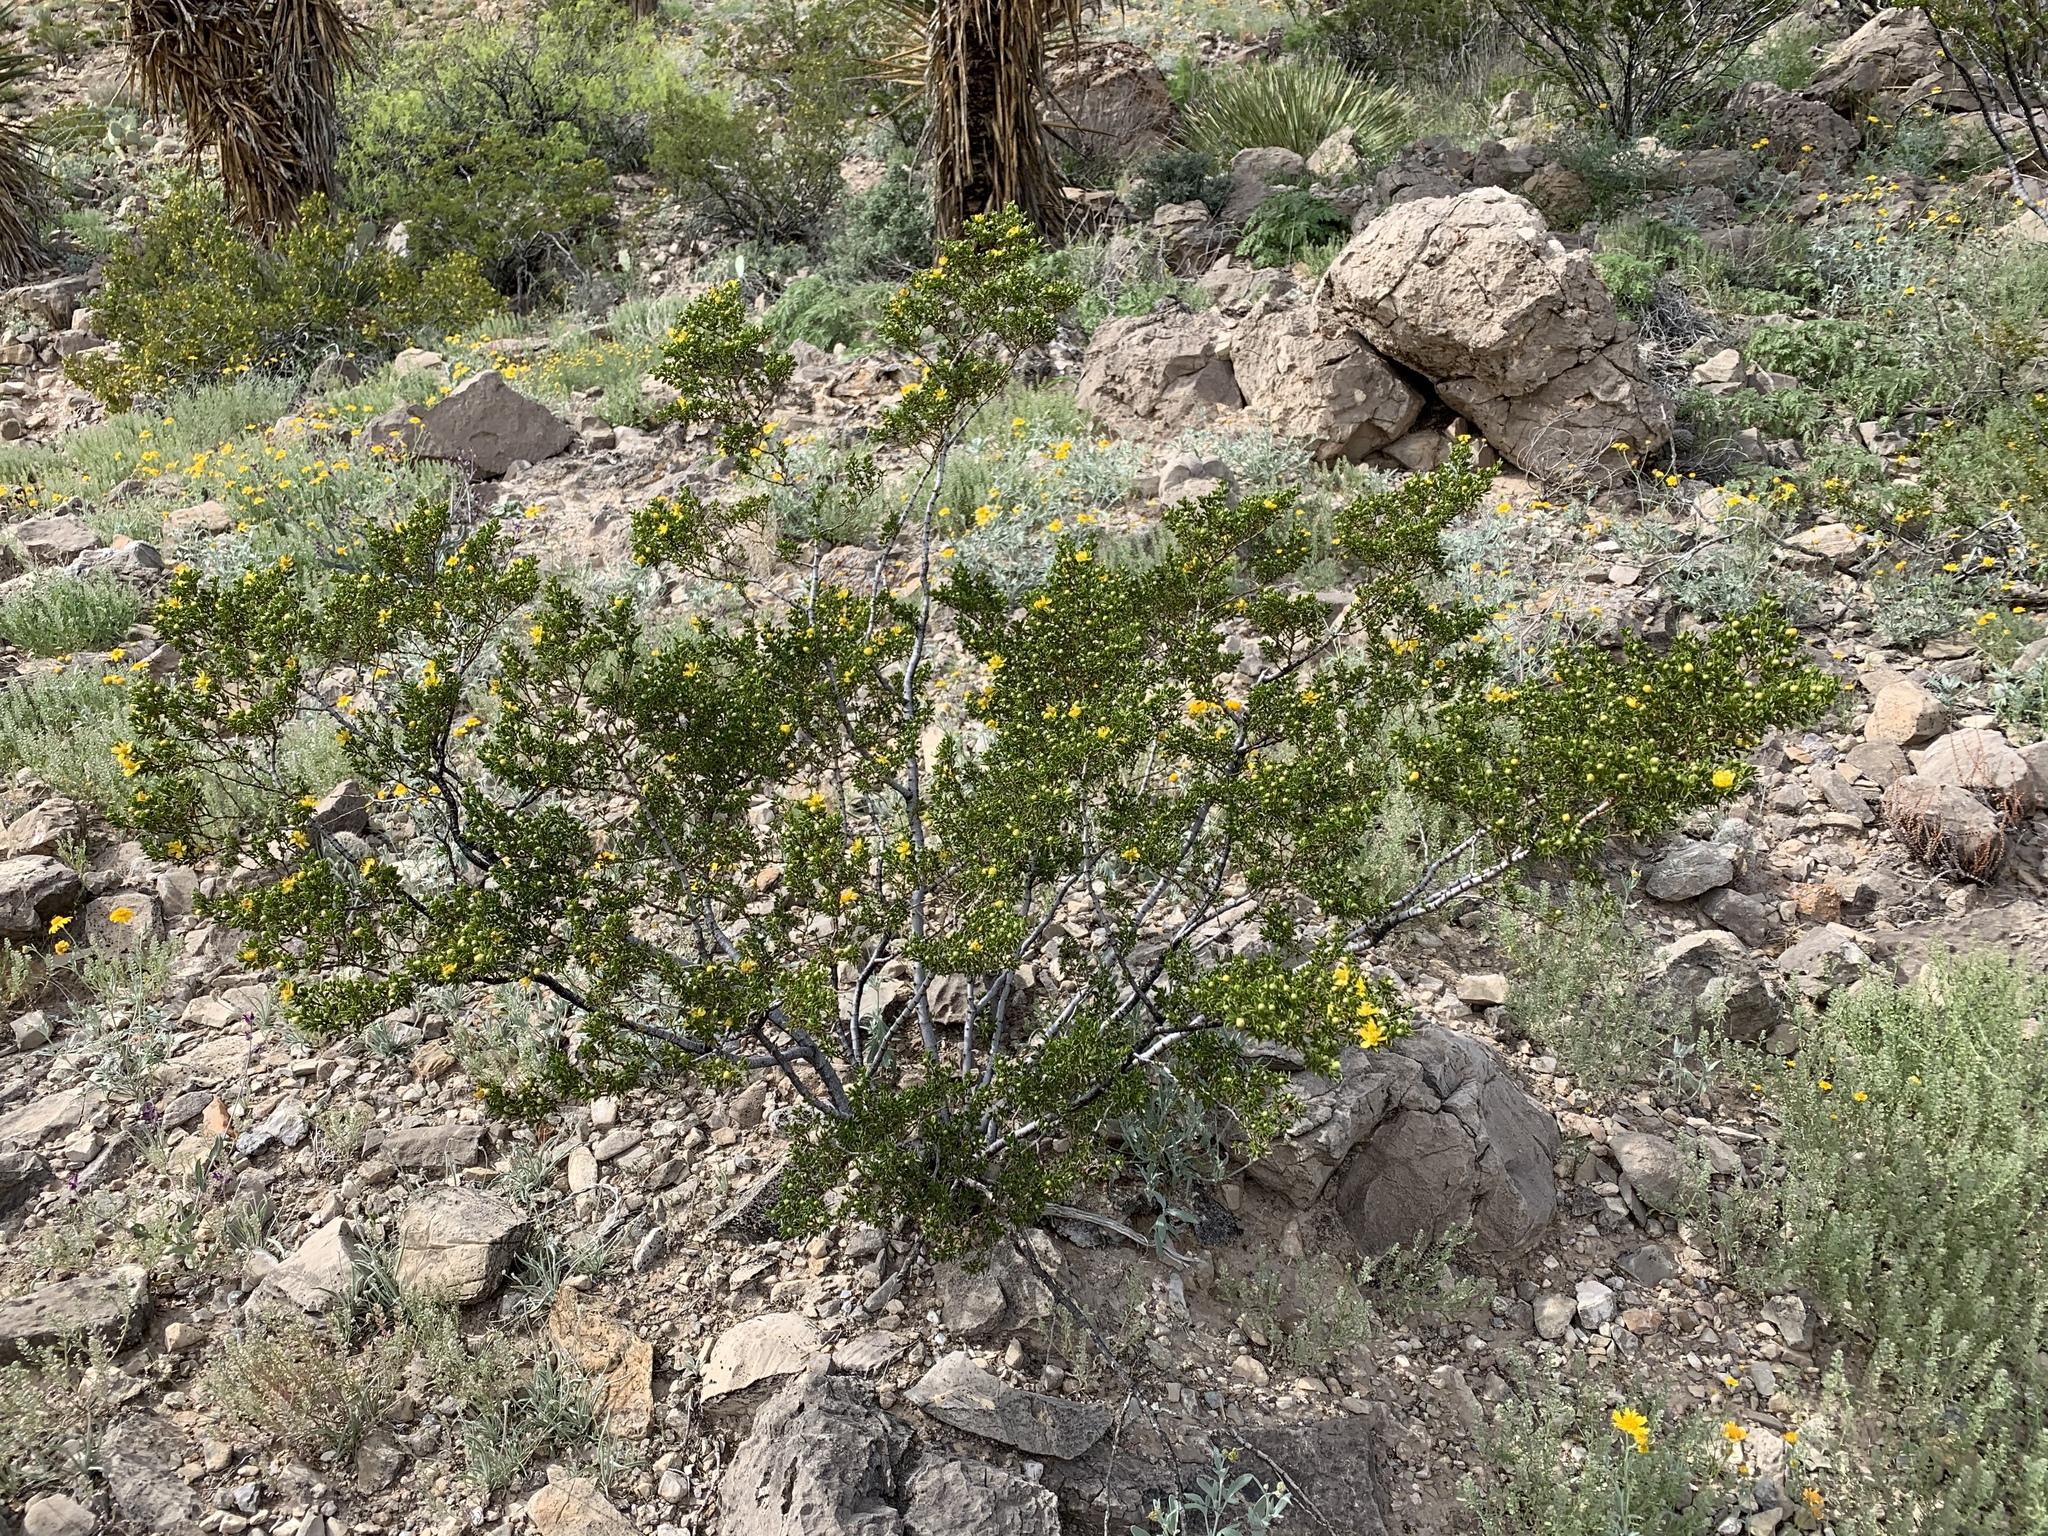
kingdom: Plantae
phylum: Tracheophyta
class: Magnoliopsida
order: Zygophyllales
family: Zygophyllaceae
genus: Larrea
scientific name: Larrea tridentata
